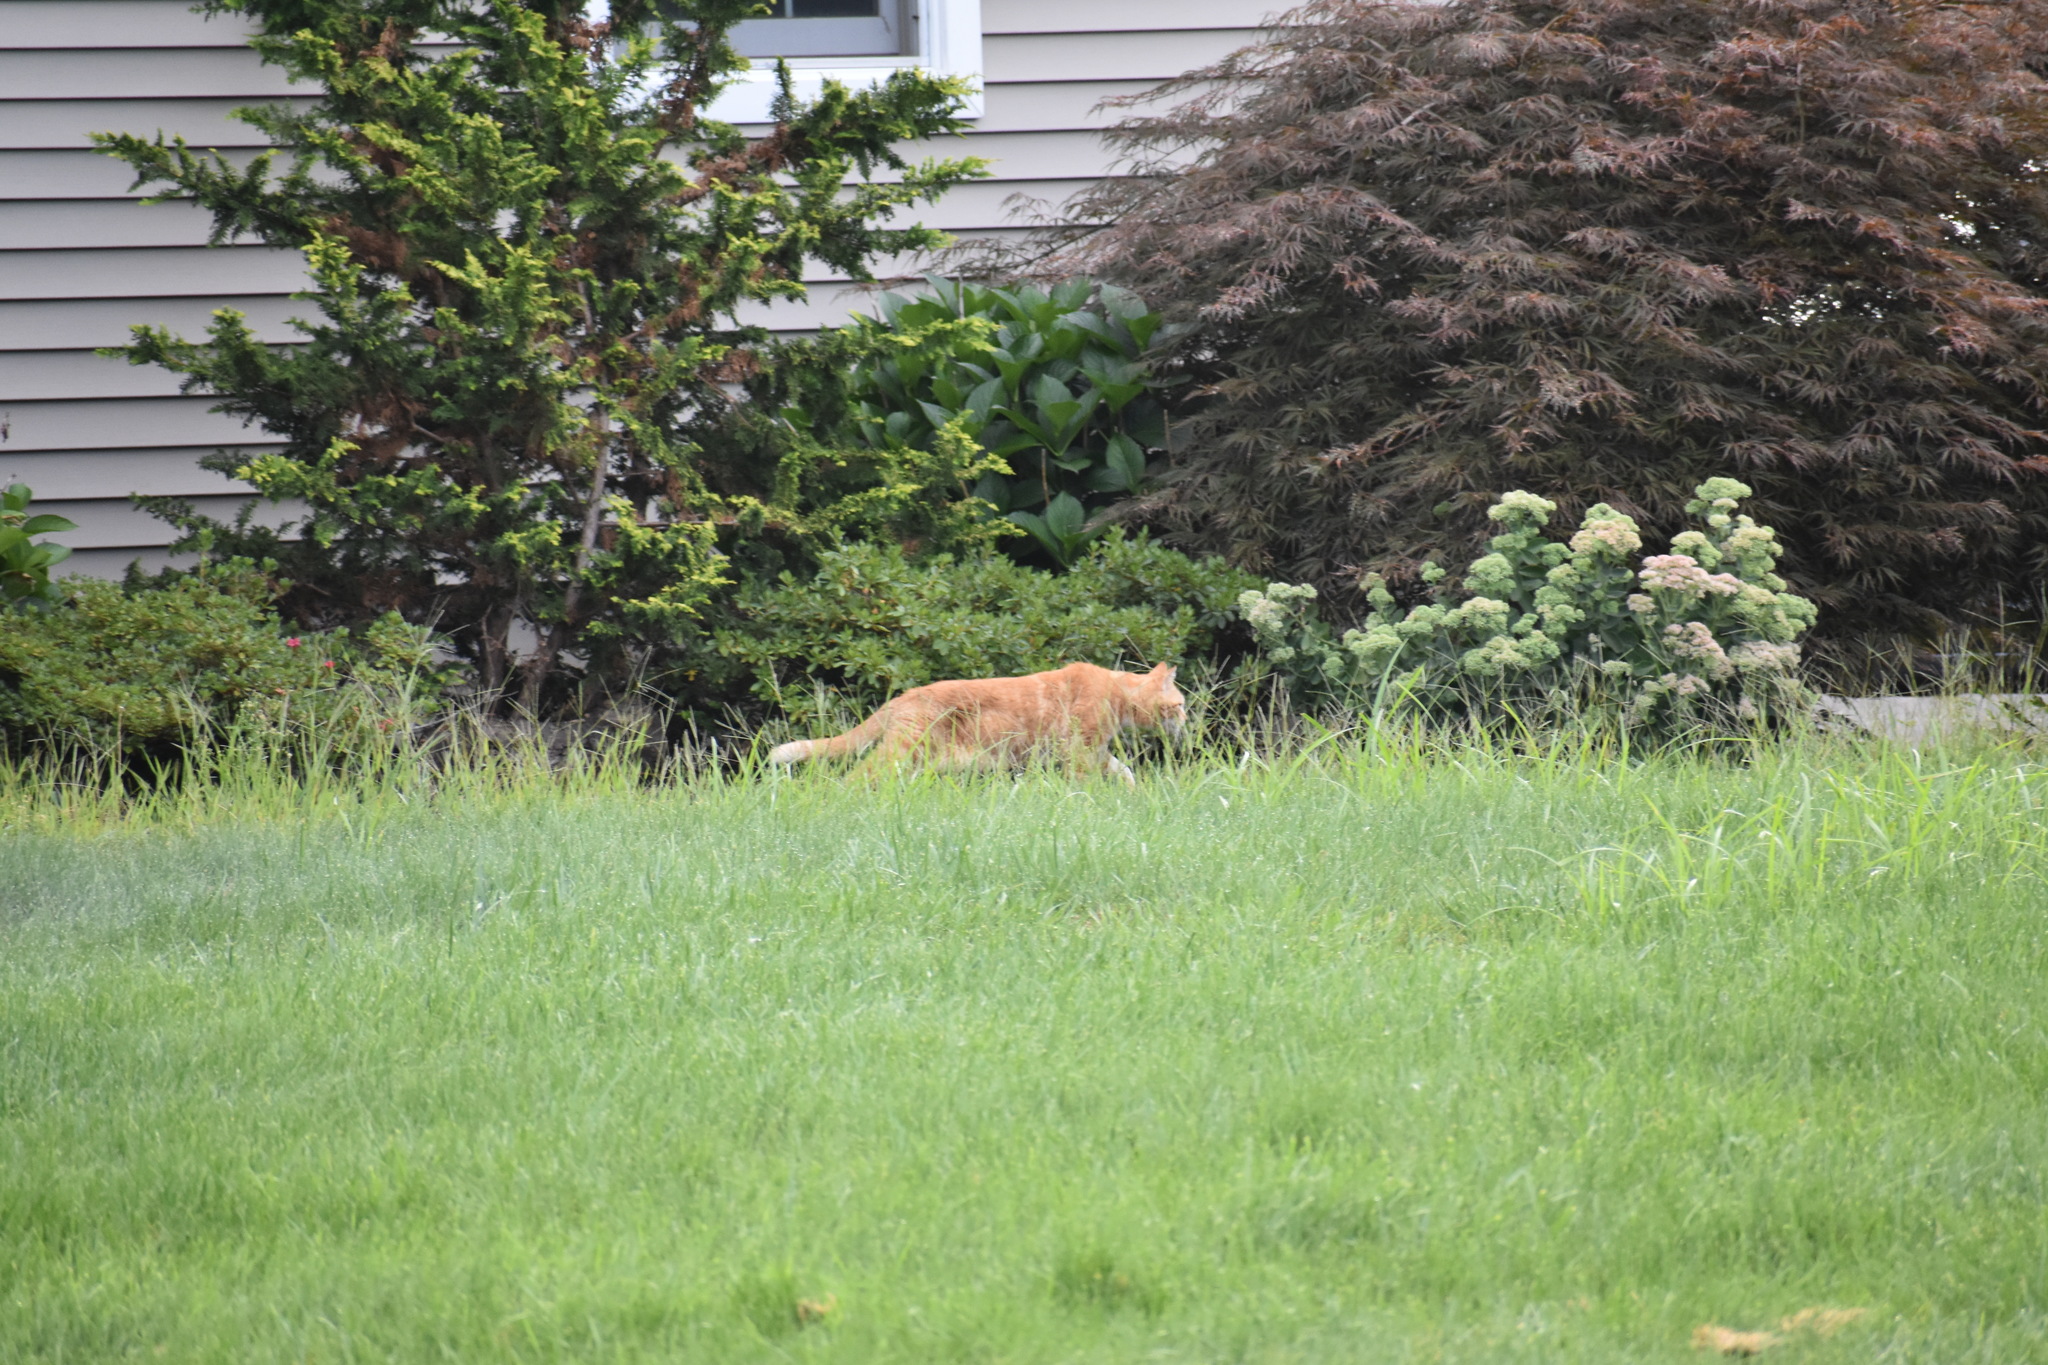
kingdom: Animalia
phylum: Chordata
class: Mammalia
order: Carnivora
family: Felidae
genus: Felis
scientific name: Felis catus
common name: Domestic cat
